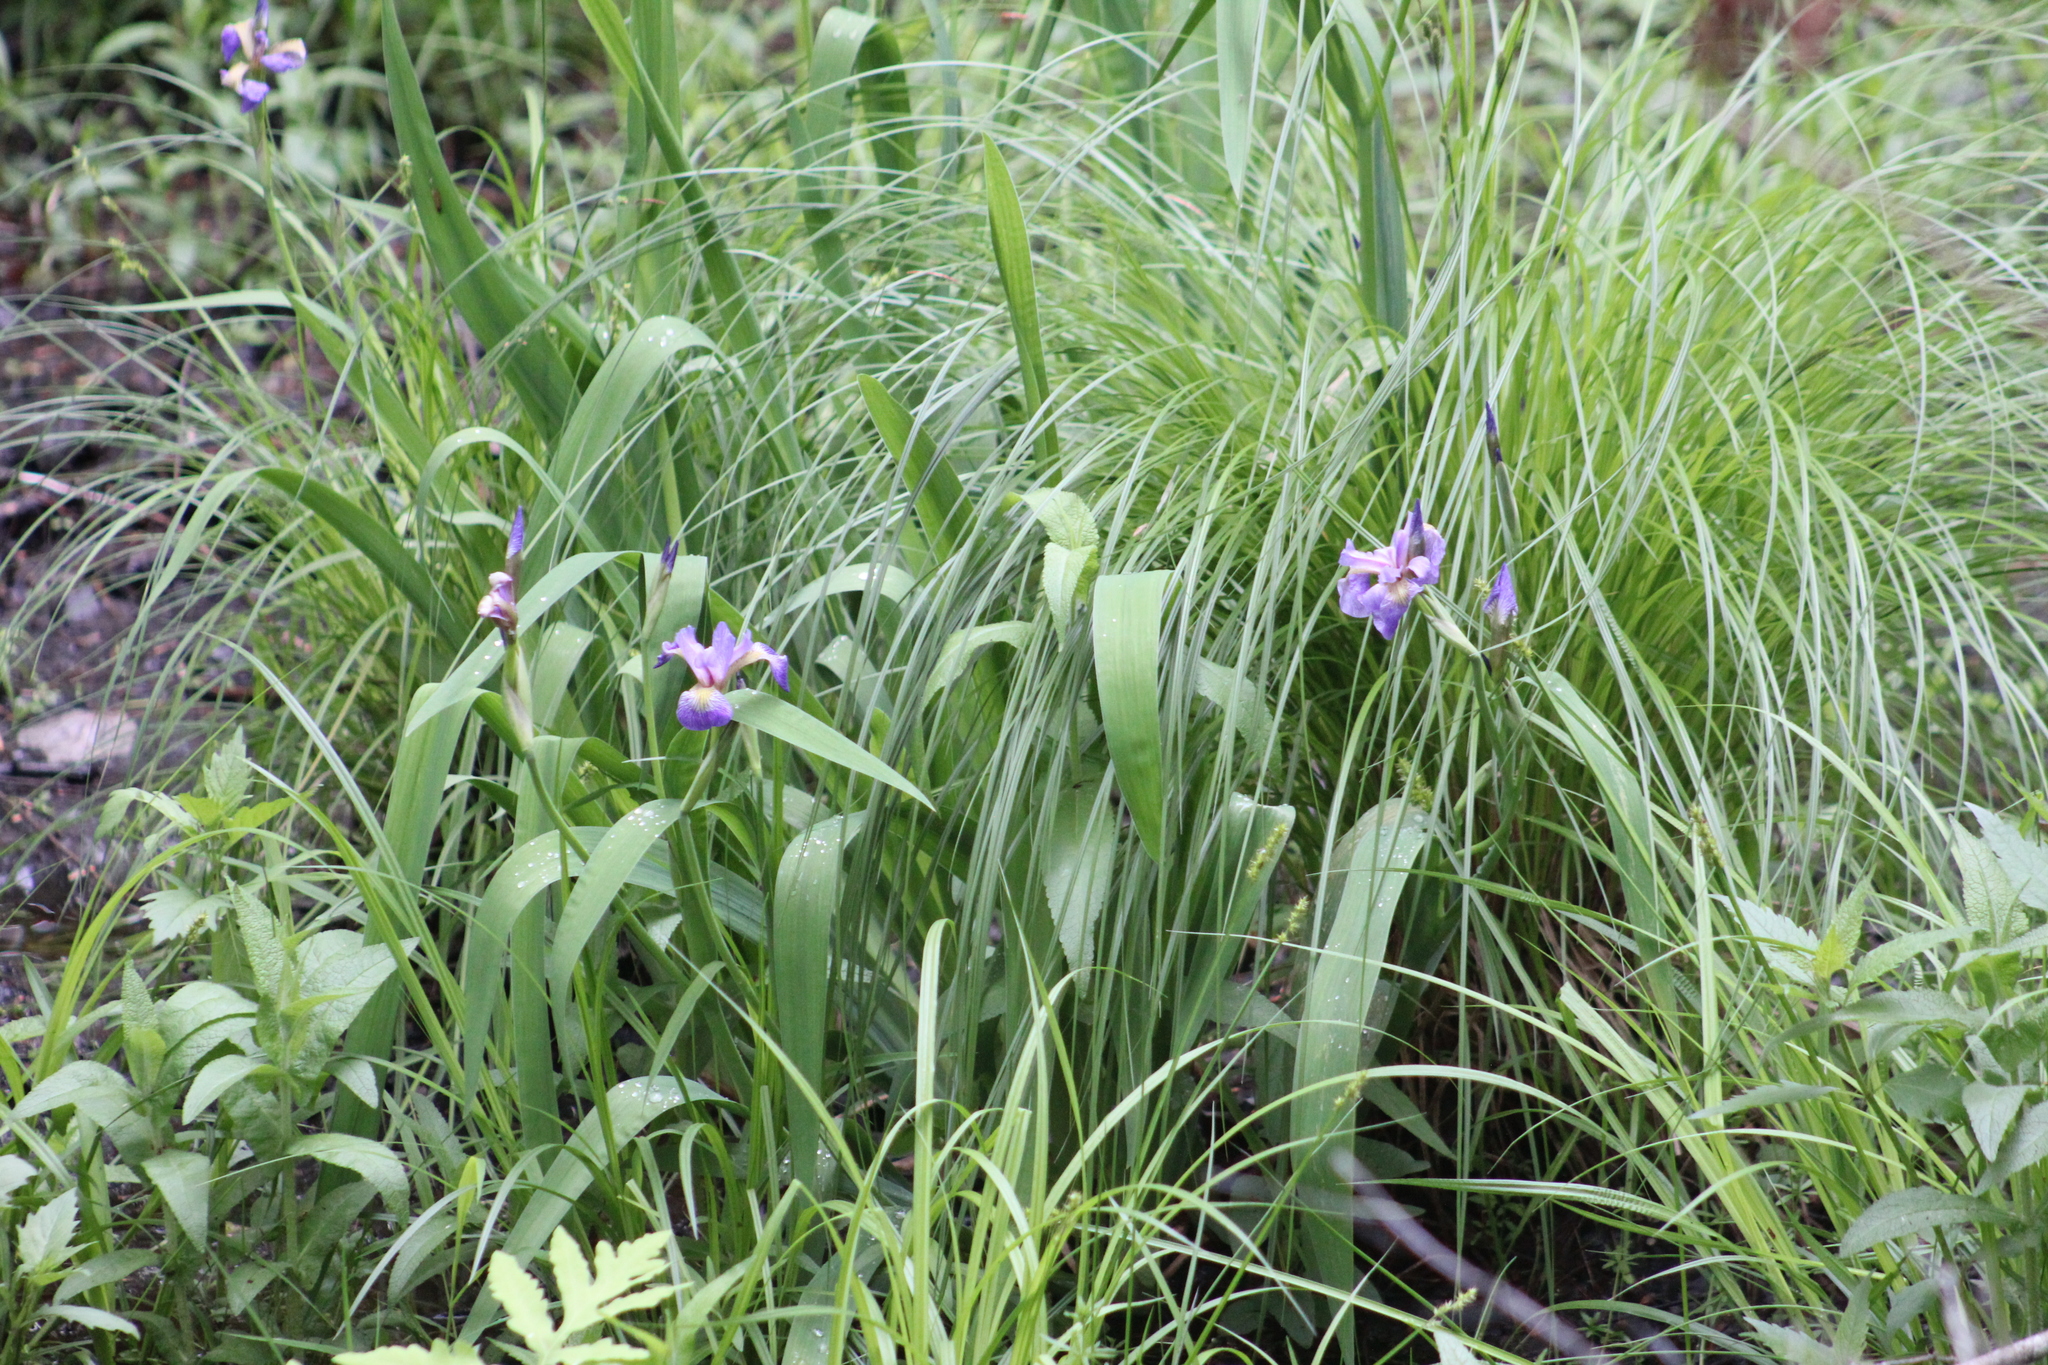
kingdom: Plantae
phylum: Tracheophyta
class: Liliopsida
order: Asparagales
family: Iridaceae
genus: Iris
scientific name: Iris versicolor
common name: Purple iris
